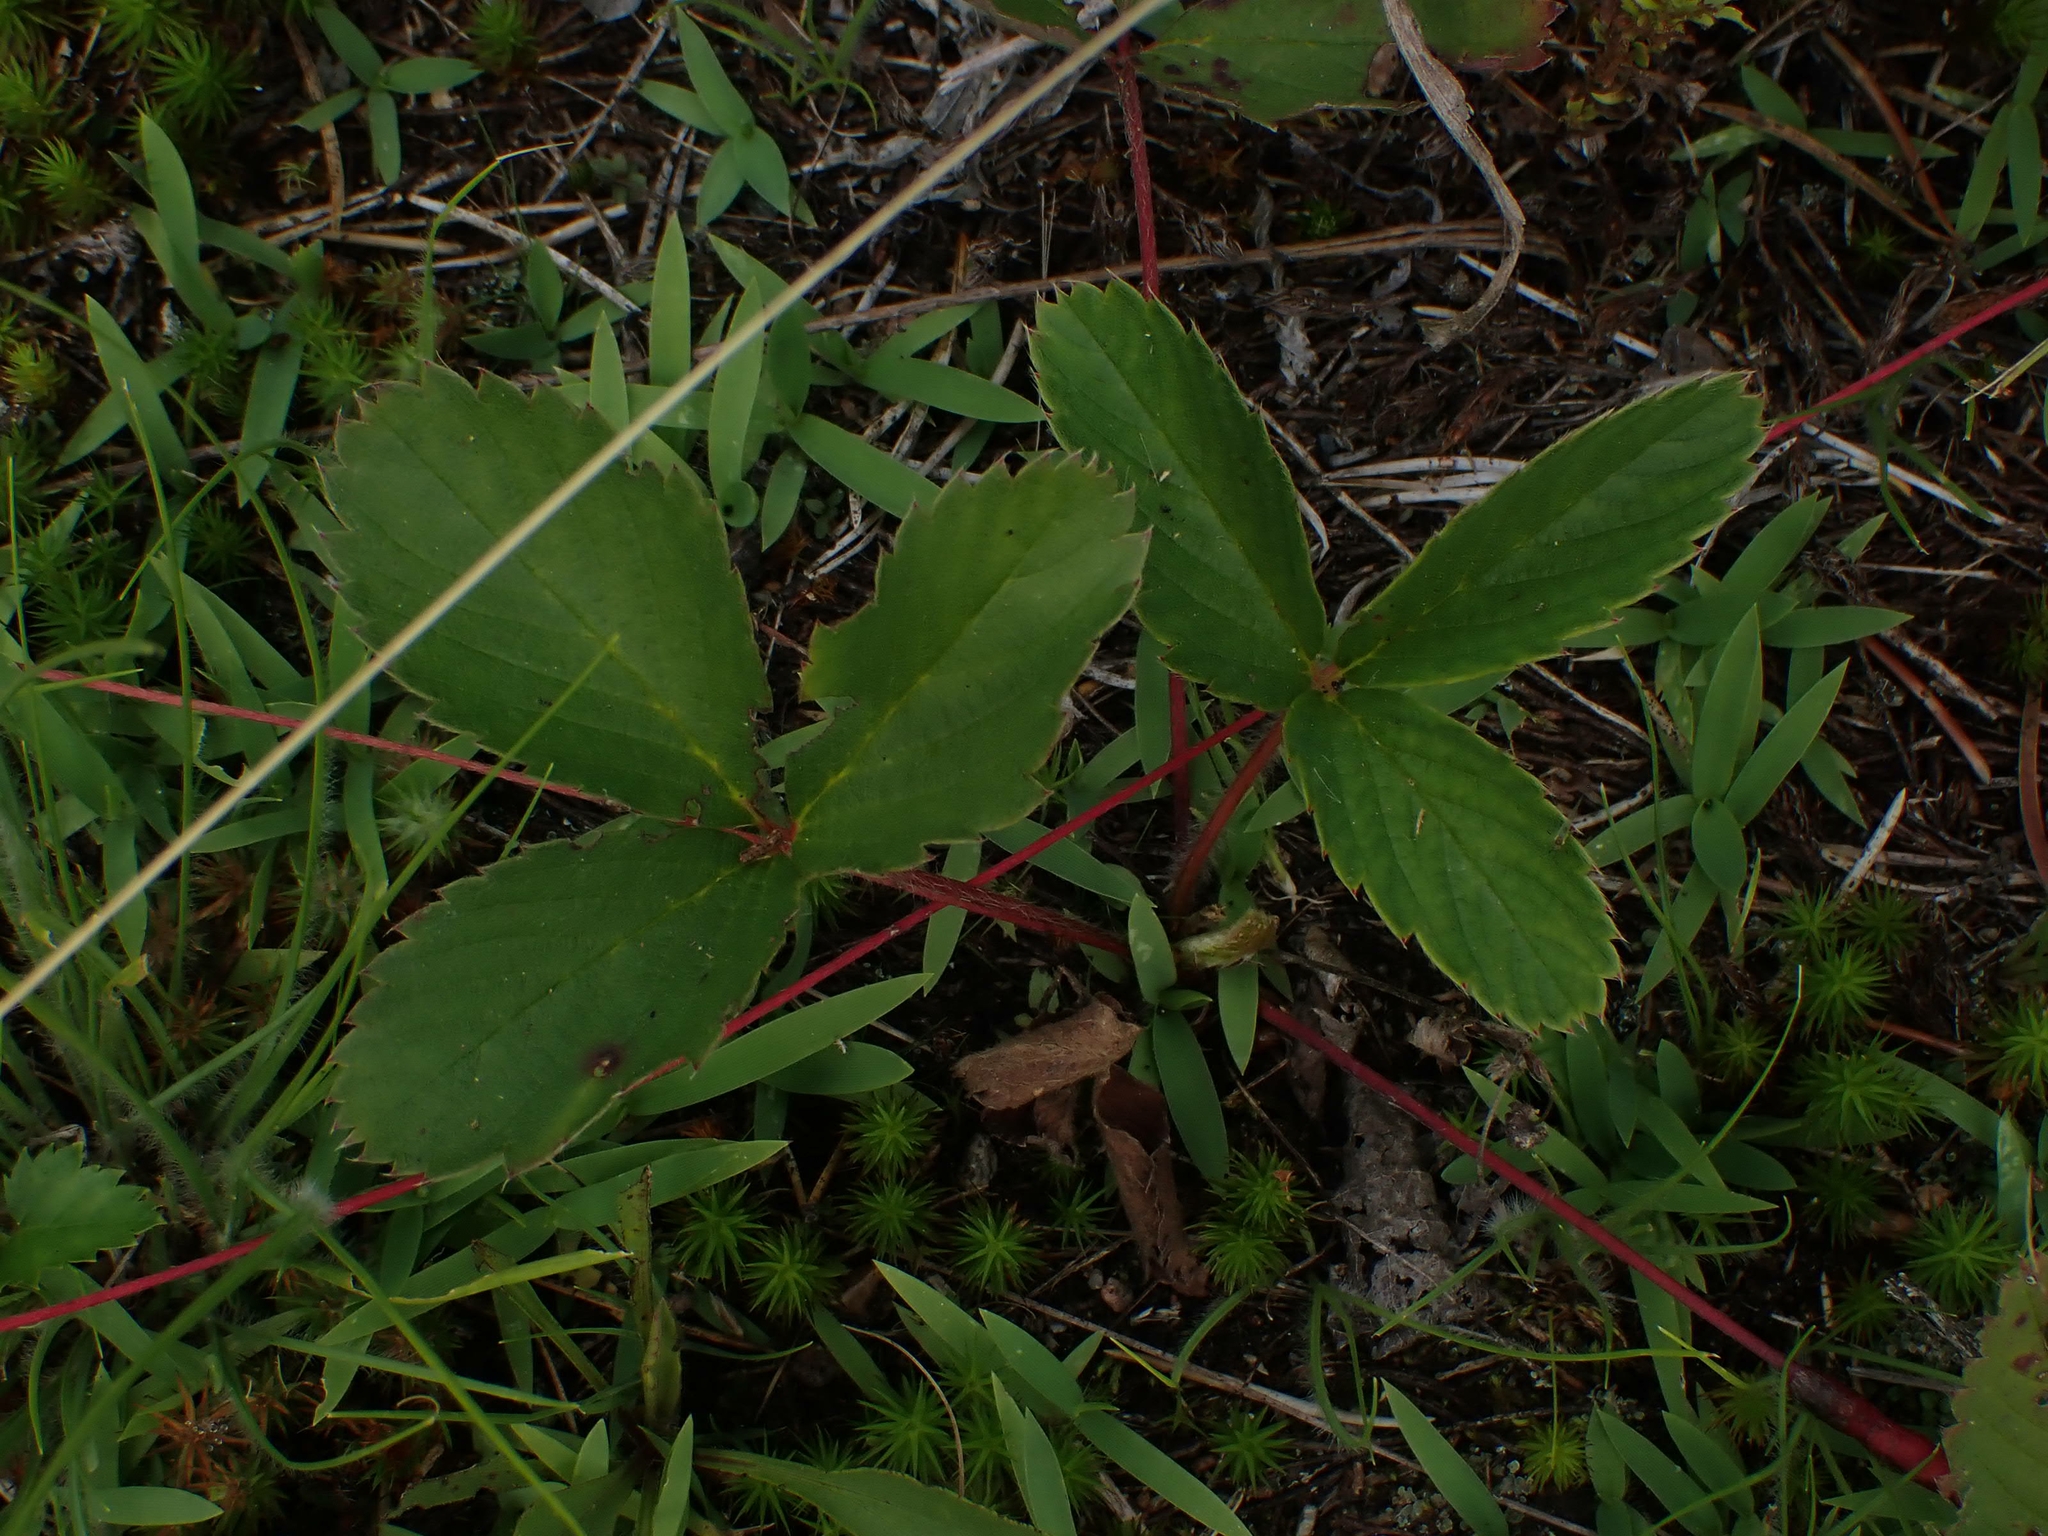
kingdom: Plantae
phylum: Tracheophyta
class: Magnoliopsida
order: Rosales
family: Rosaceae
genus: Fragaria
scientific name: Fragaria virginiana
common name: Thickleaved wild strawberry
